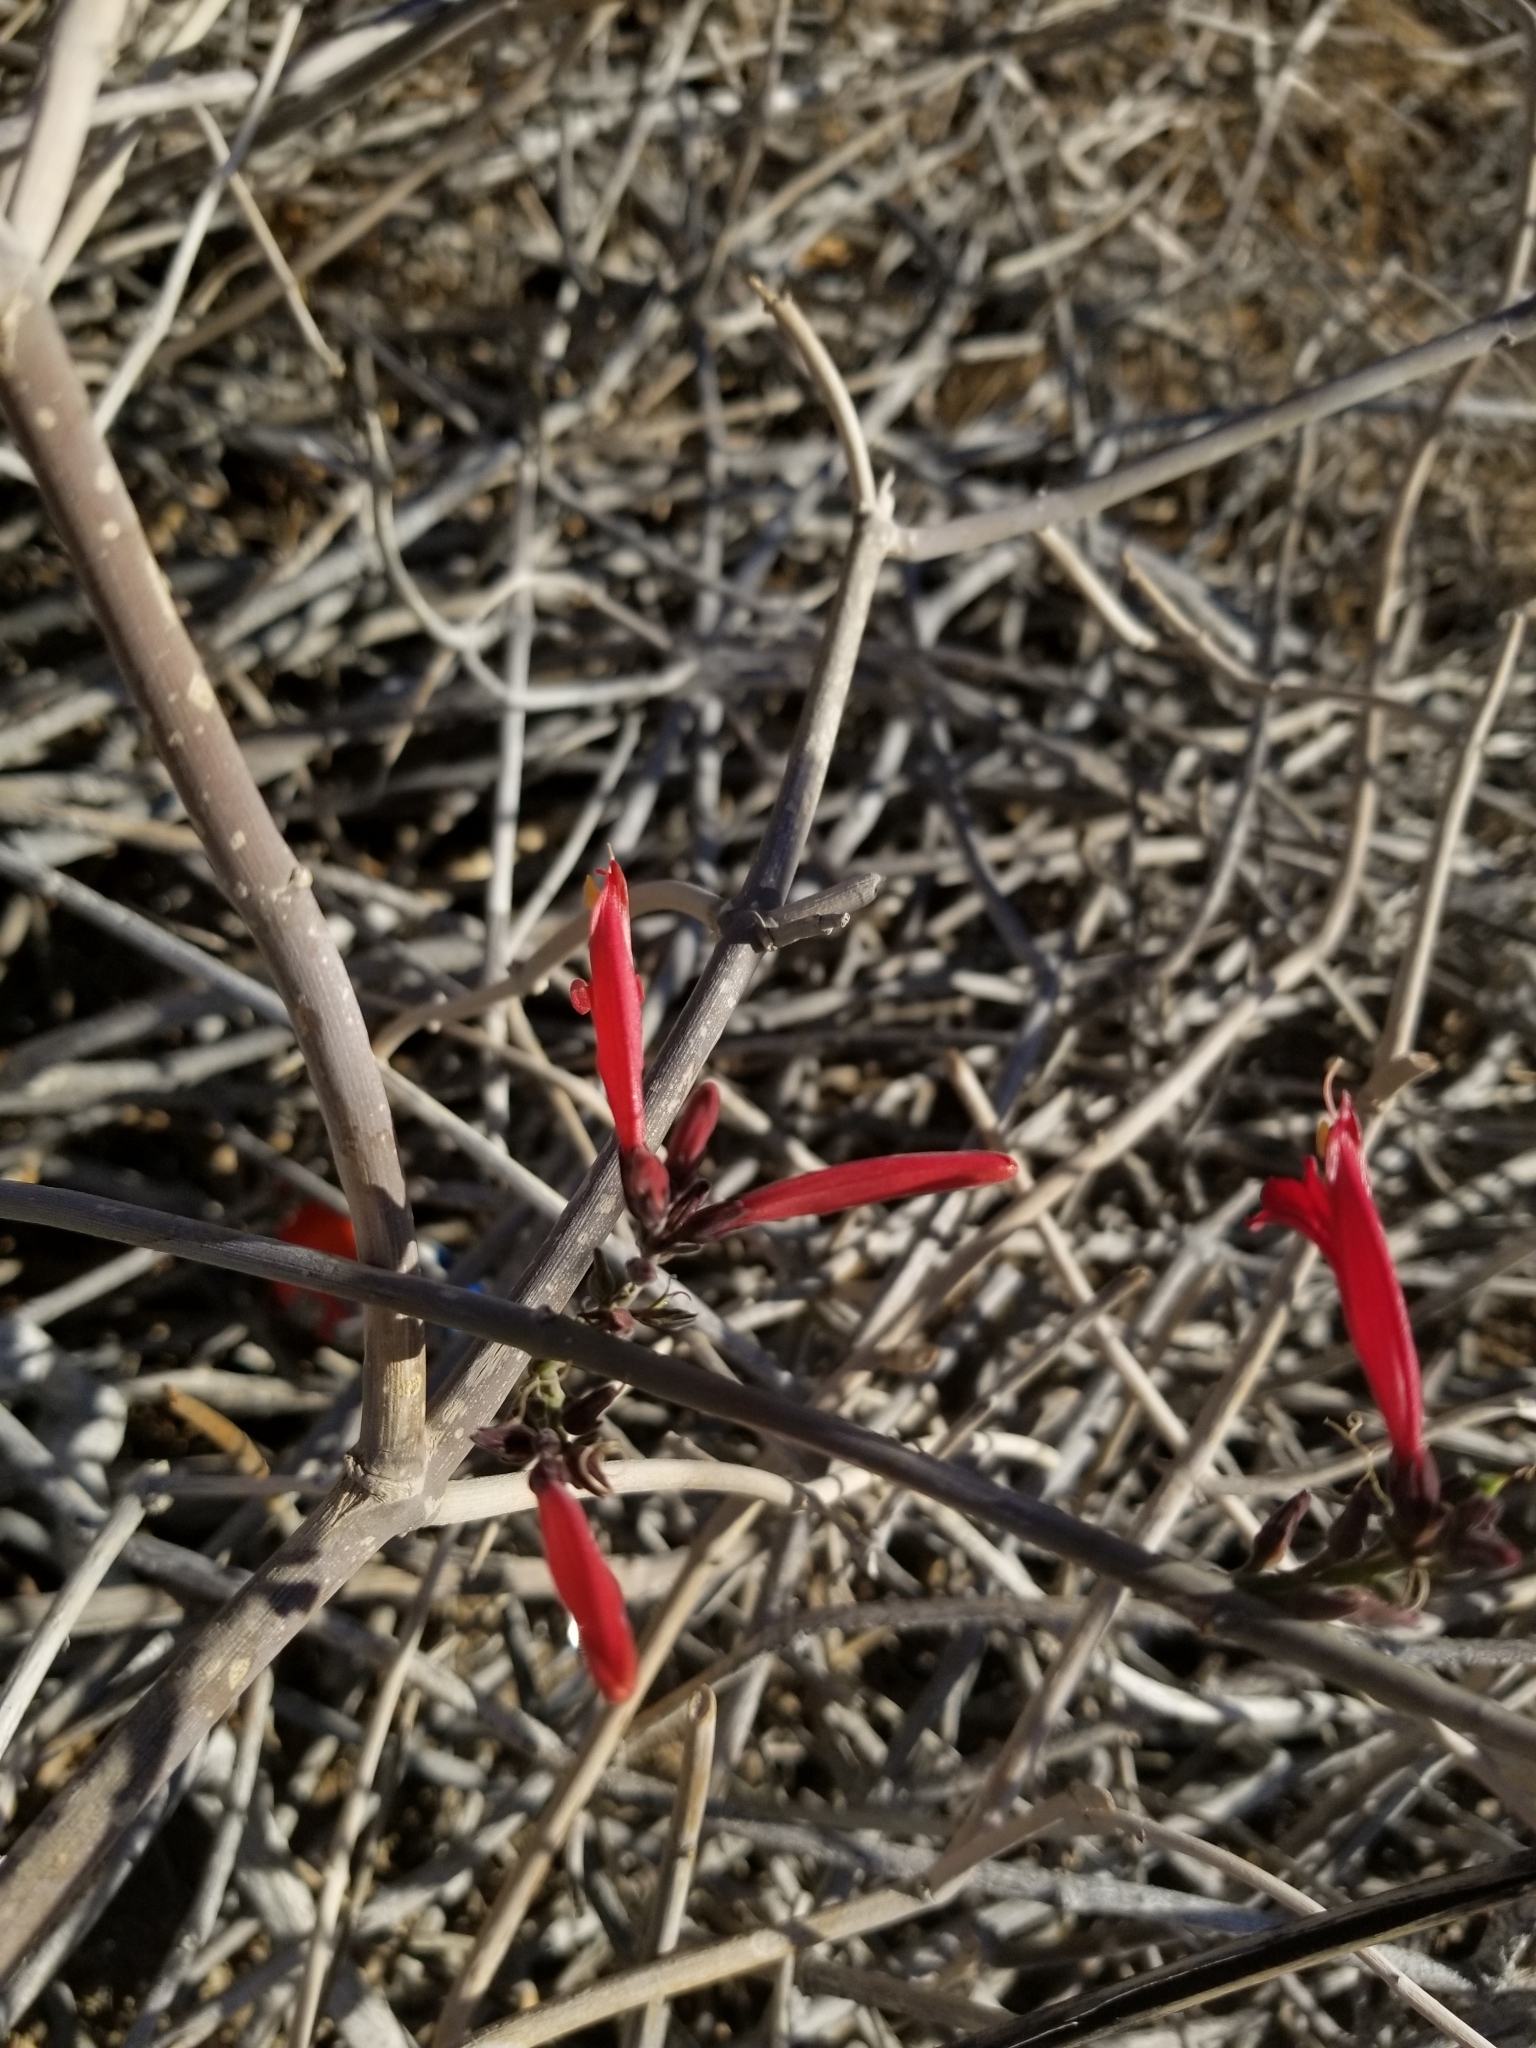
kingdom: Plantae
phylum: Tracheophyta
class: Magnoliopsida
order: Lamiales
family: Acanthaceae
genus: Justicia
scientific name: Justicia californica
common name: Chuparosa-honeysuckle
